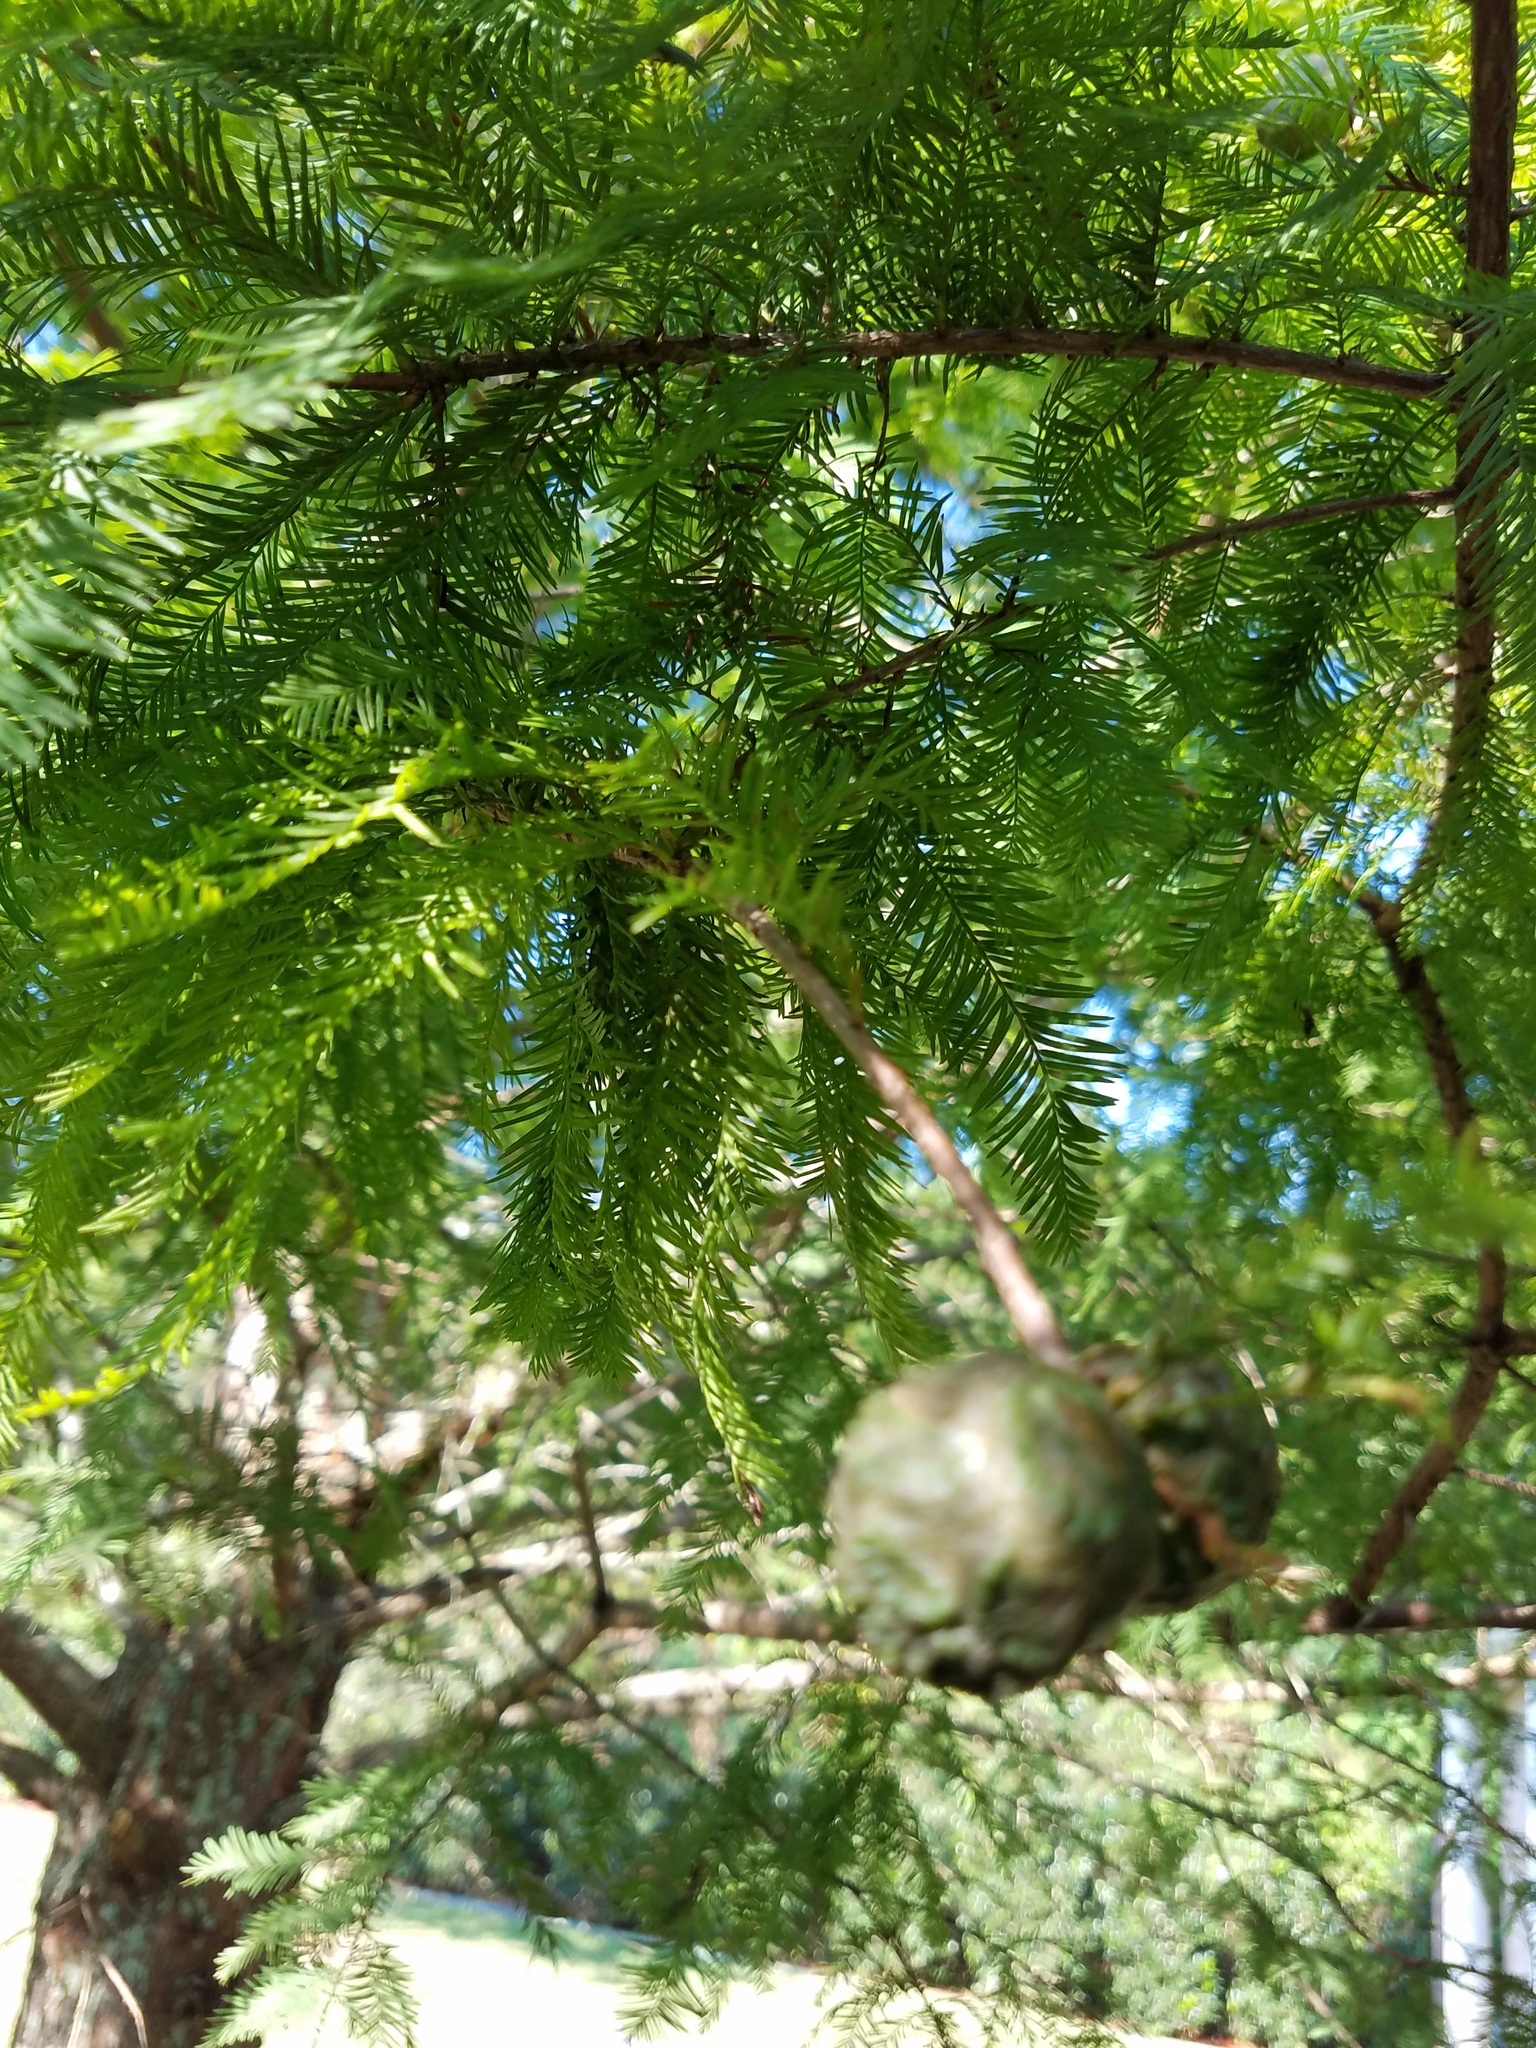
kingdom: Plantae
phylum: Tracheophyta
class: Pinopsida
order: Pinales
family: Cupressaceae
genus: Taxodium
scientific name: Taxodium distichum
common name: Bald cypress
